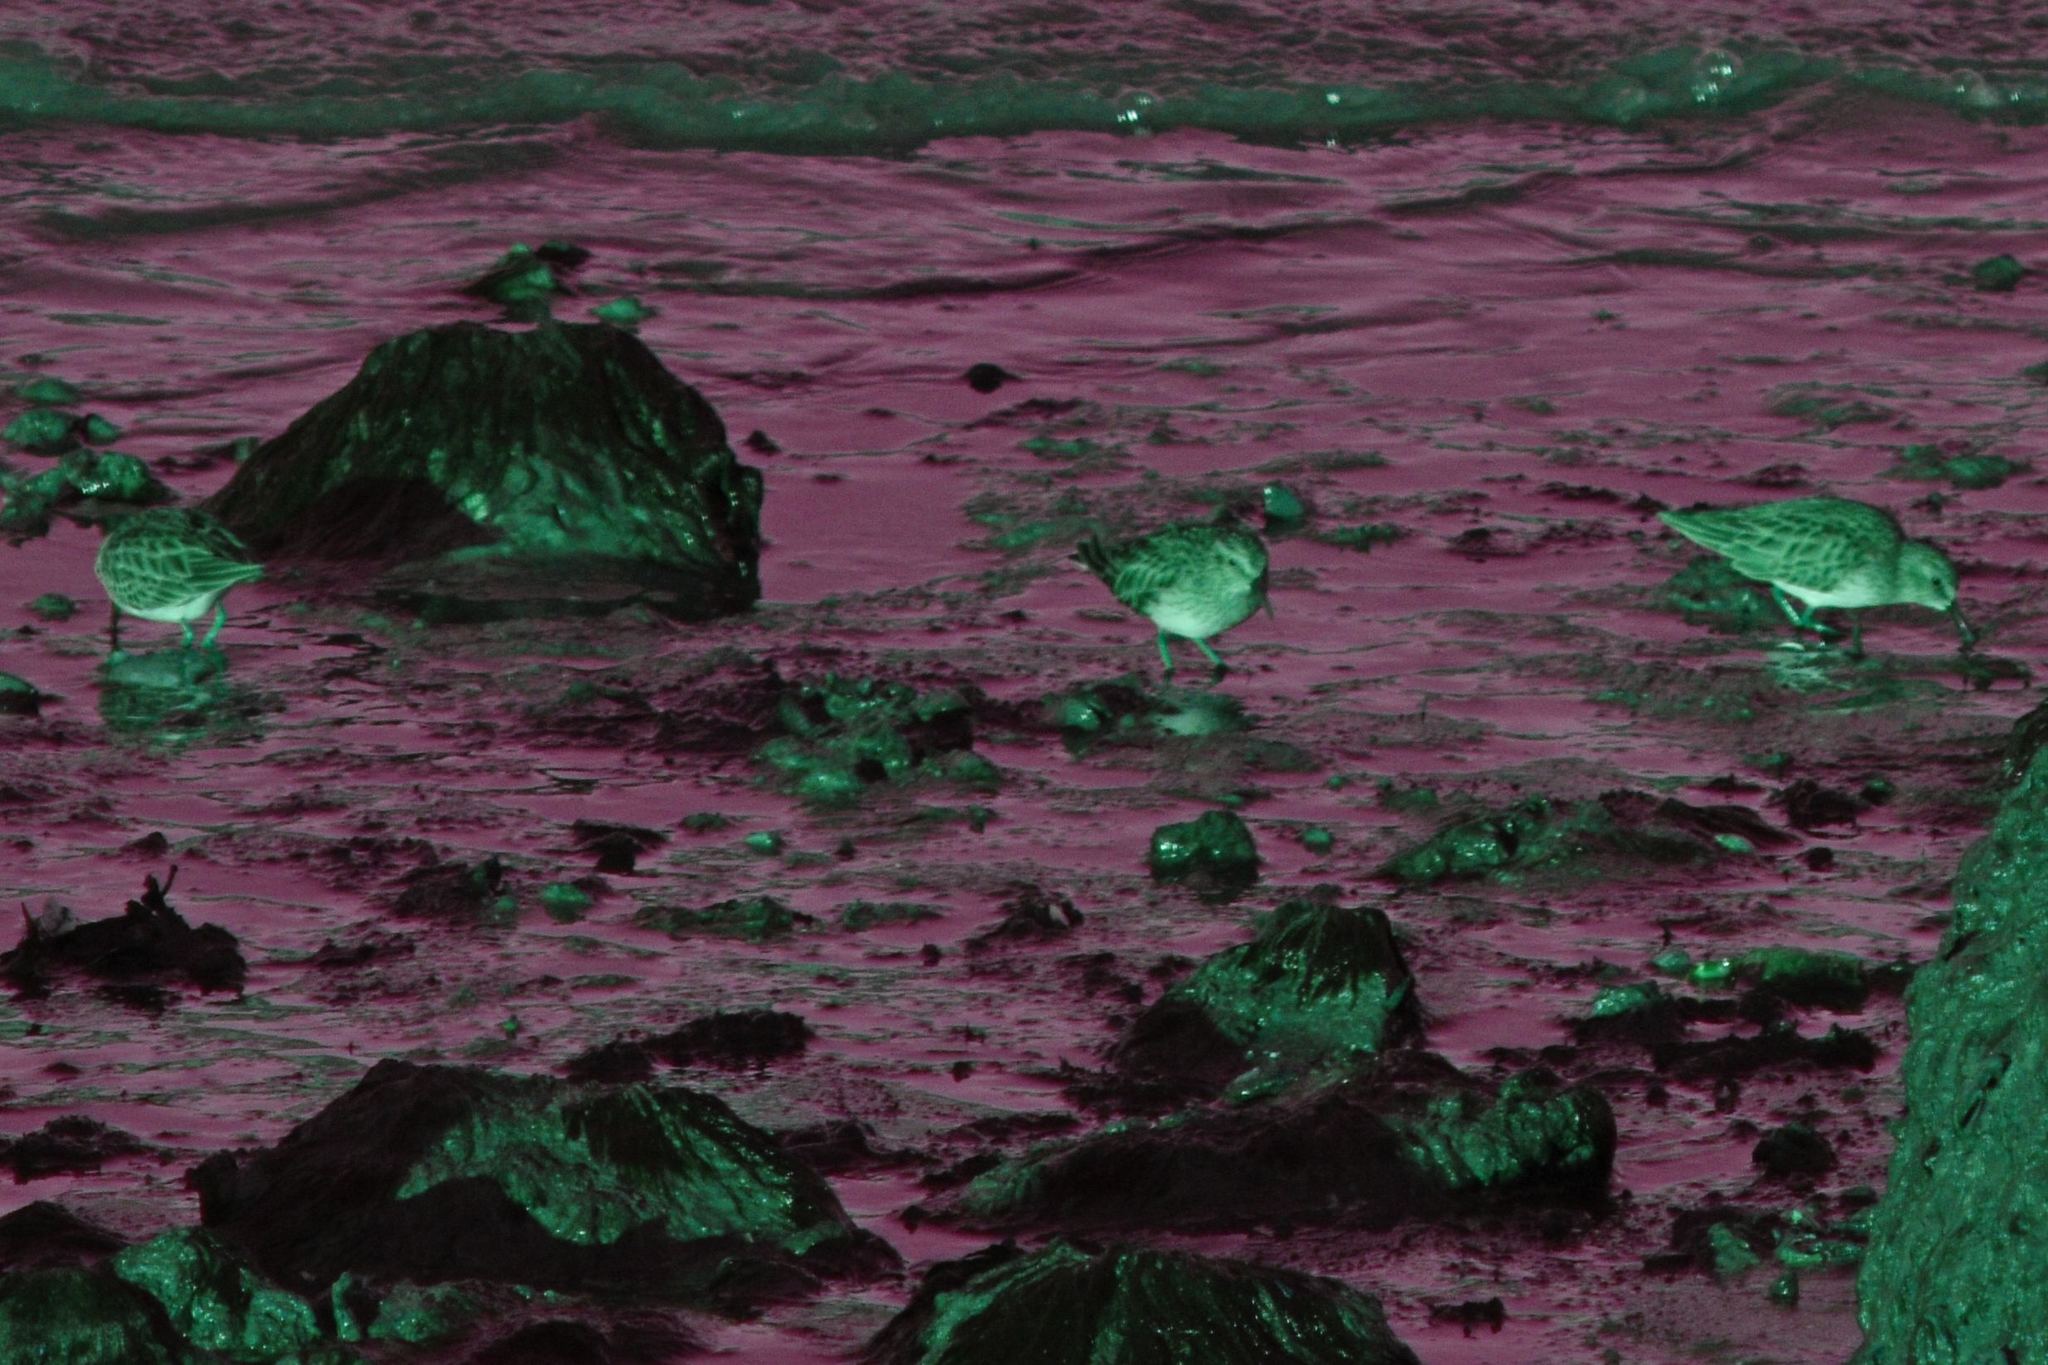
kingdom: Animalia
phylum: Chordata
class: Aves
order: Charadriiformes
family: Scolopacidae
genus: Calidris
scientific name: Calidris minutilla
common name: Least sandpiper
